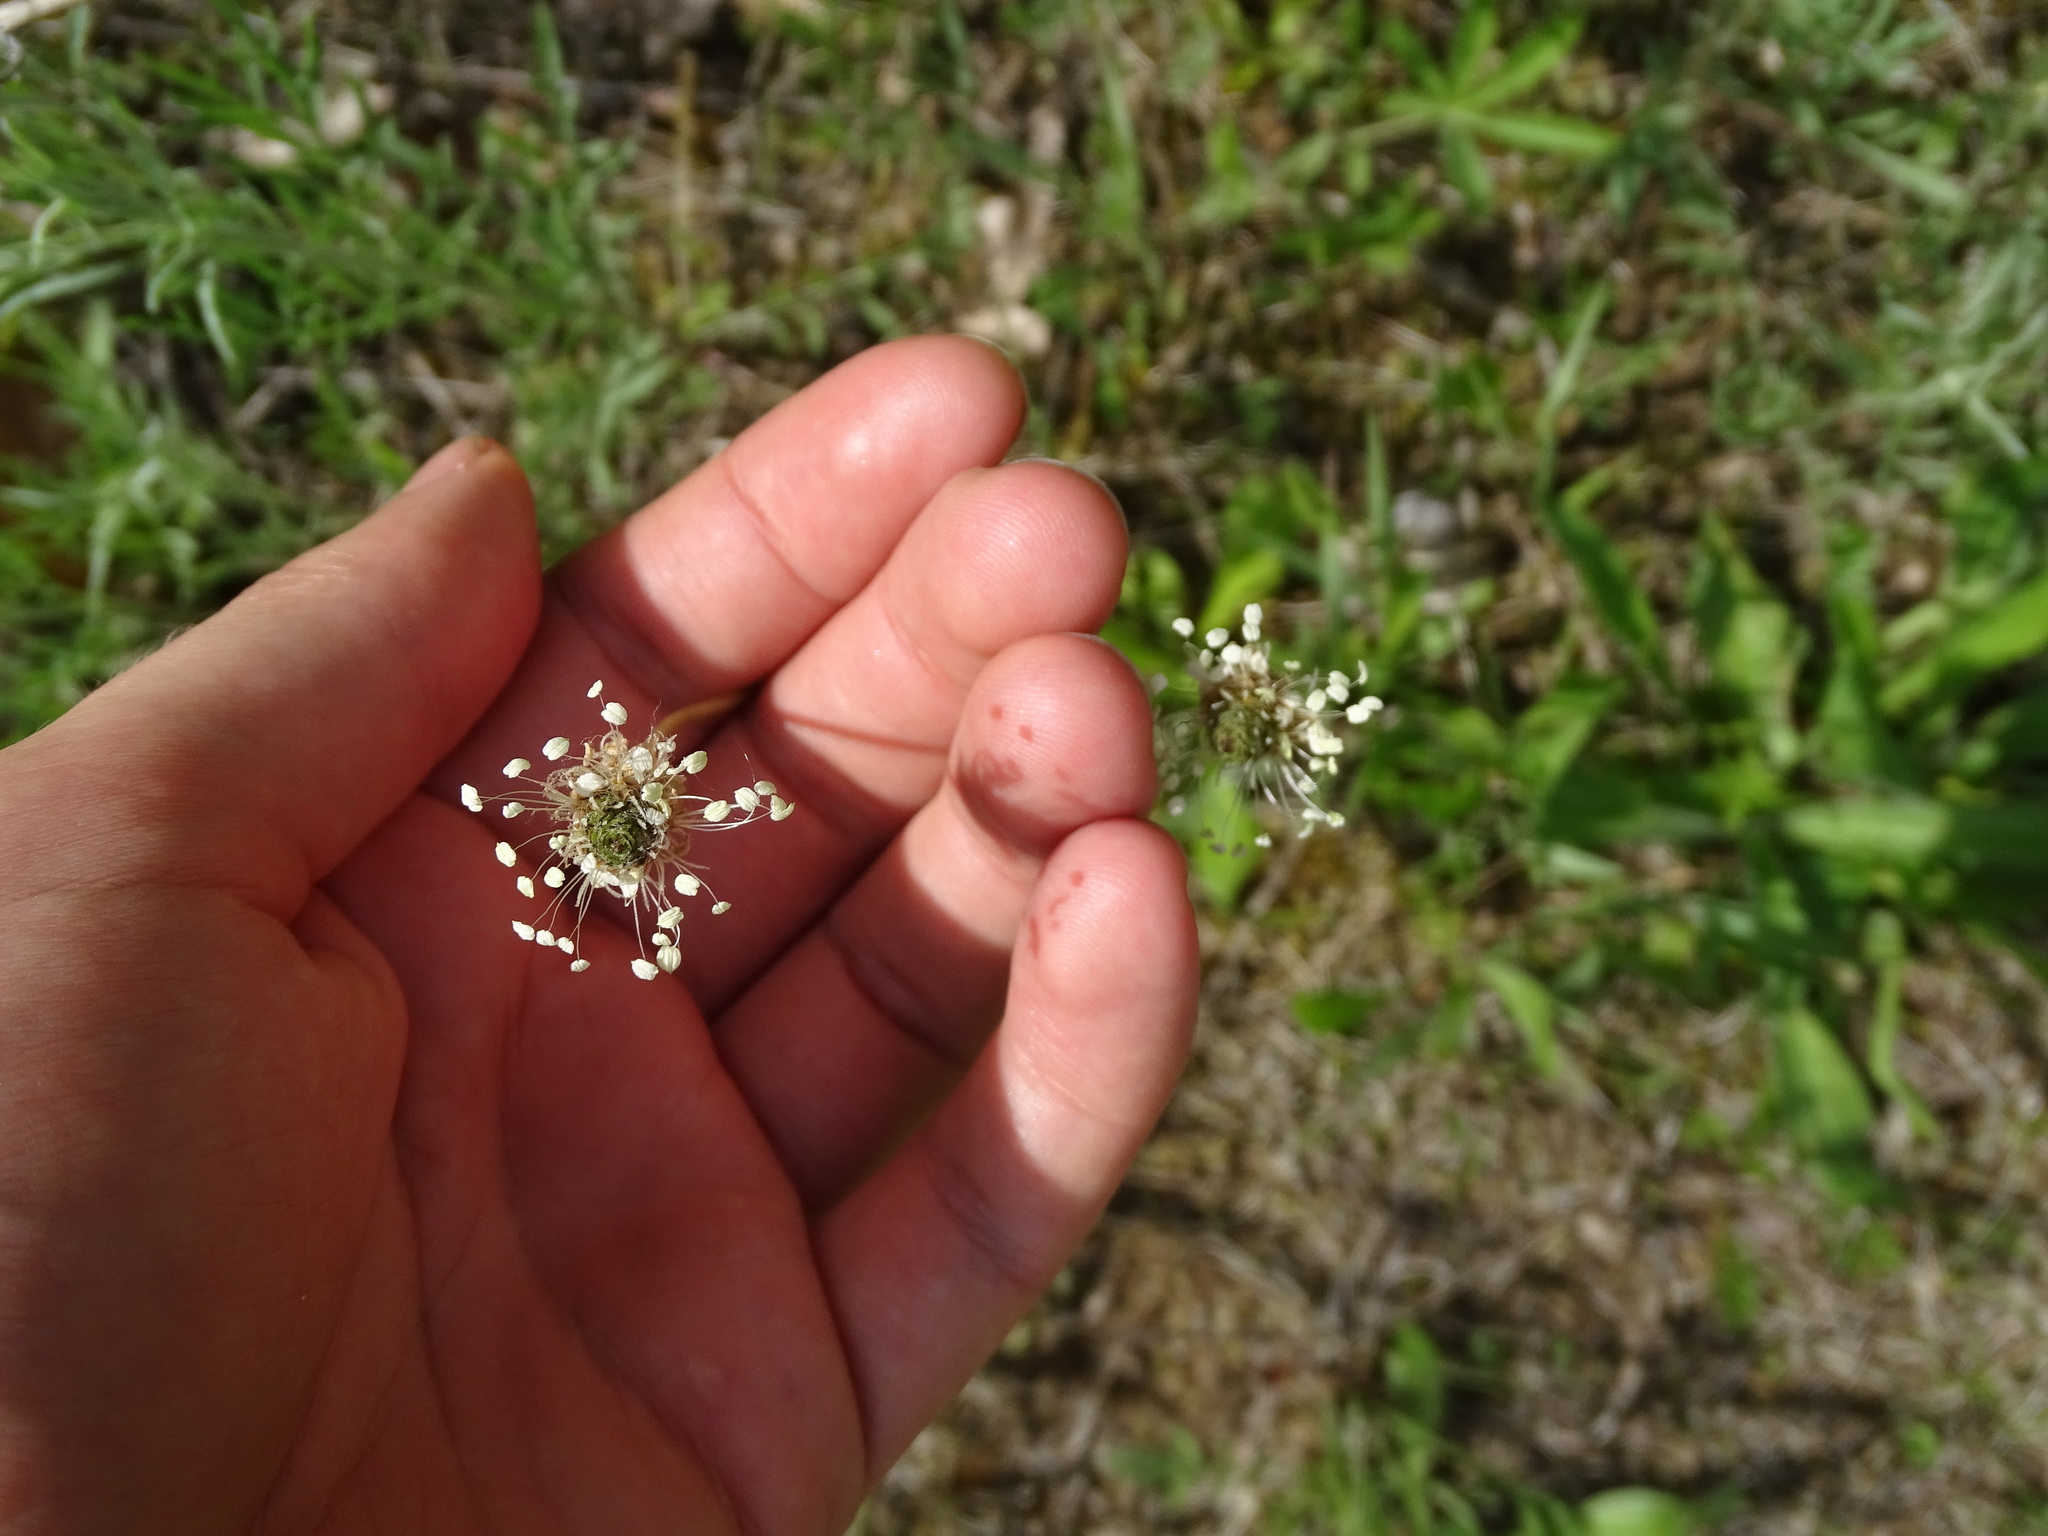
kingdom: Plantae
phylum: Tracheophyta
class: Magnoliopsida
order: Lamiales
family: Plantaginaceae
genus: Plantago
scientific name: Plantago lanceolata
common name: Ribwort plantain
